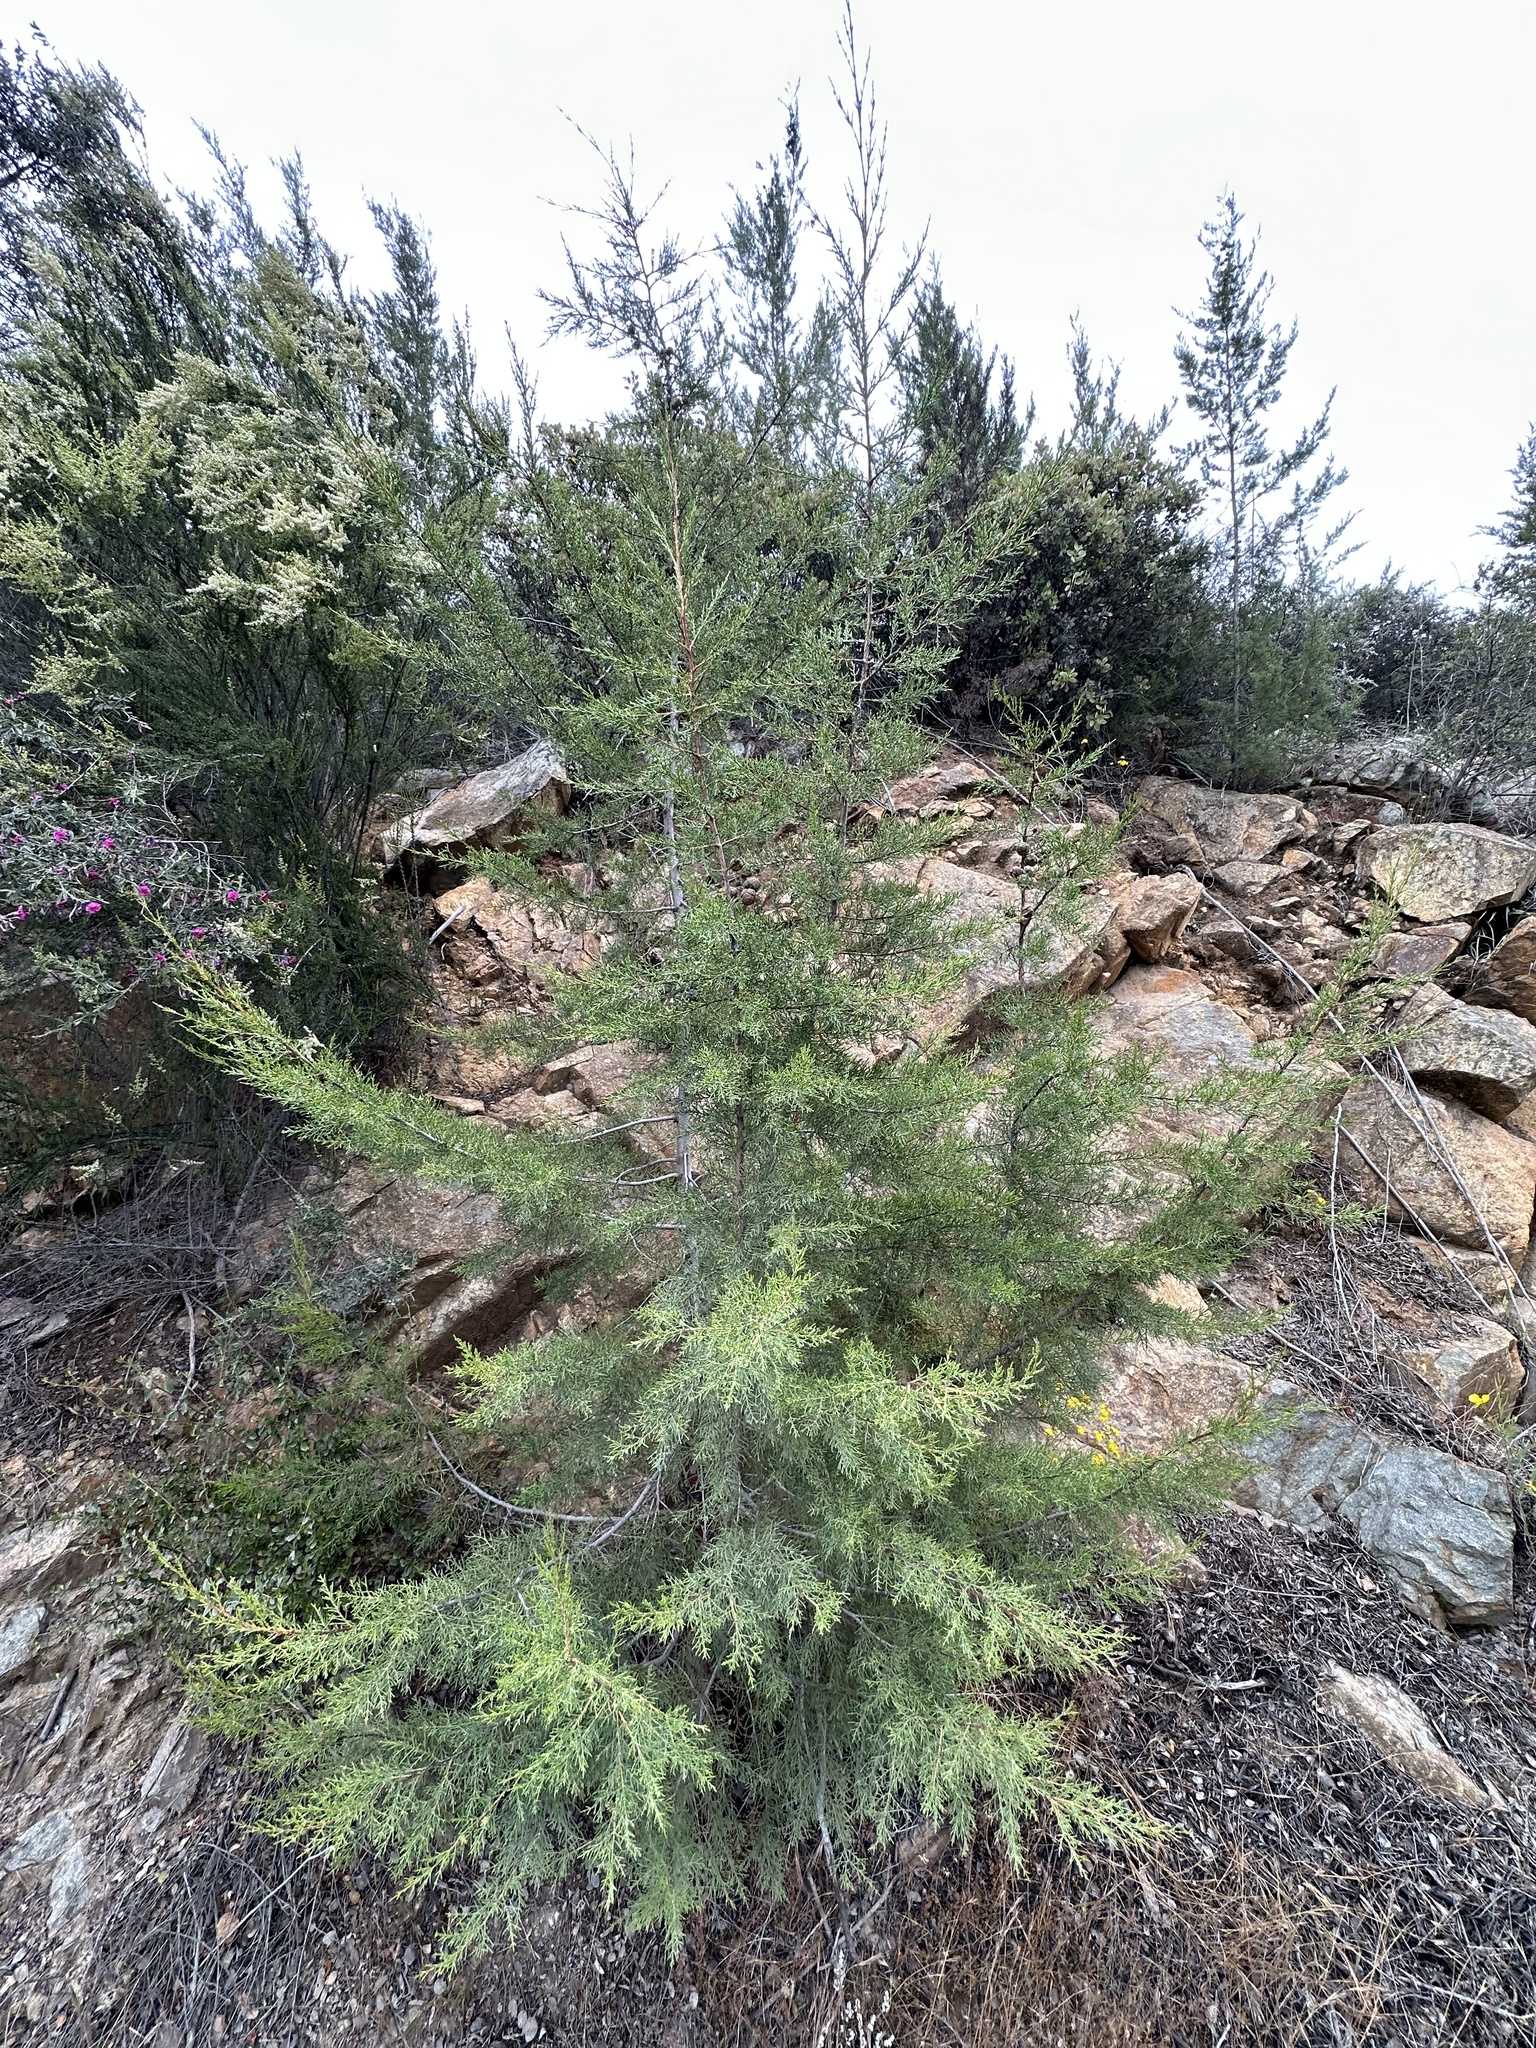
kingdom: Plantae
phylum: Tracheophyta
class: Pinopsida
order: Pinales
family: Cupressaceae
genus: Cupressus
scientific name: Cupressus guadalupensis
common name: Forbes cypress
